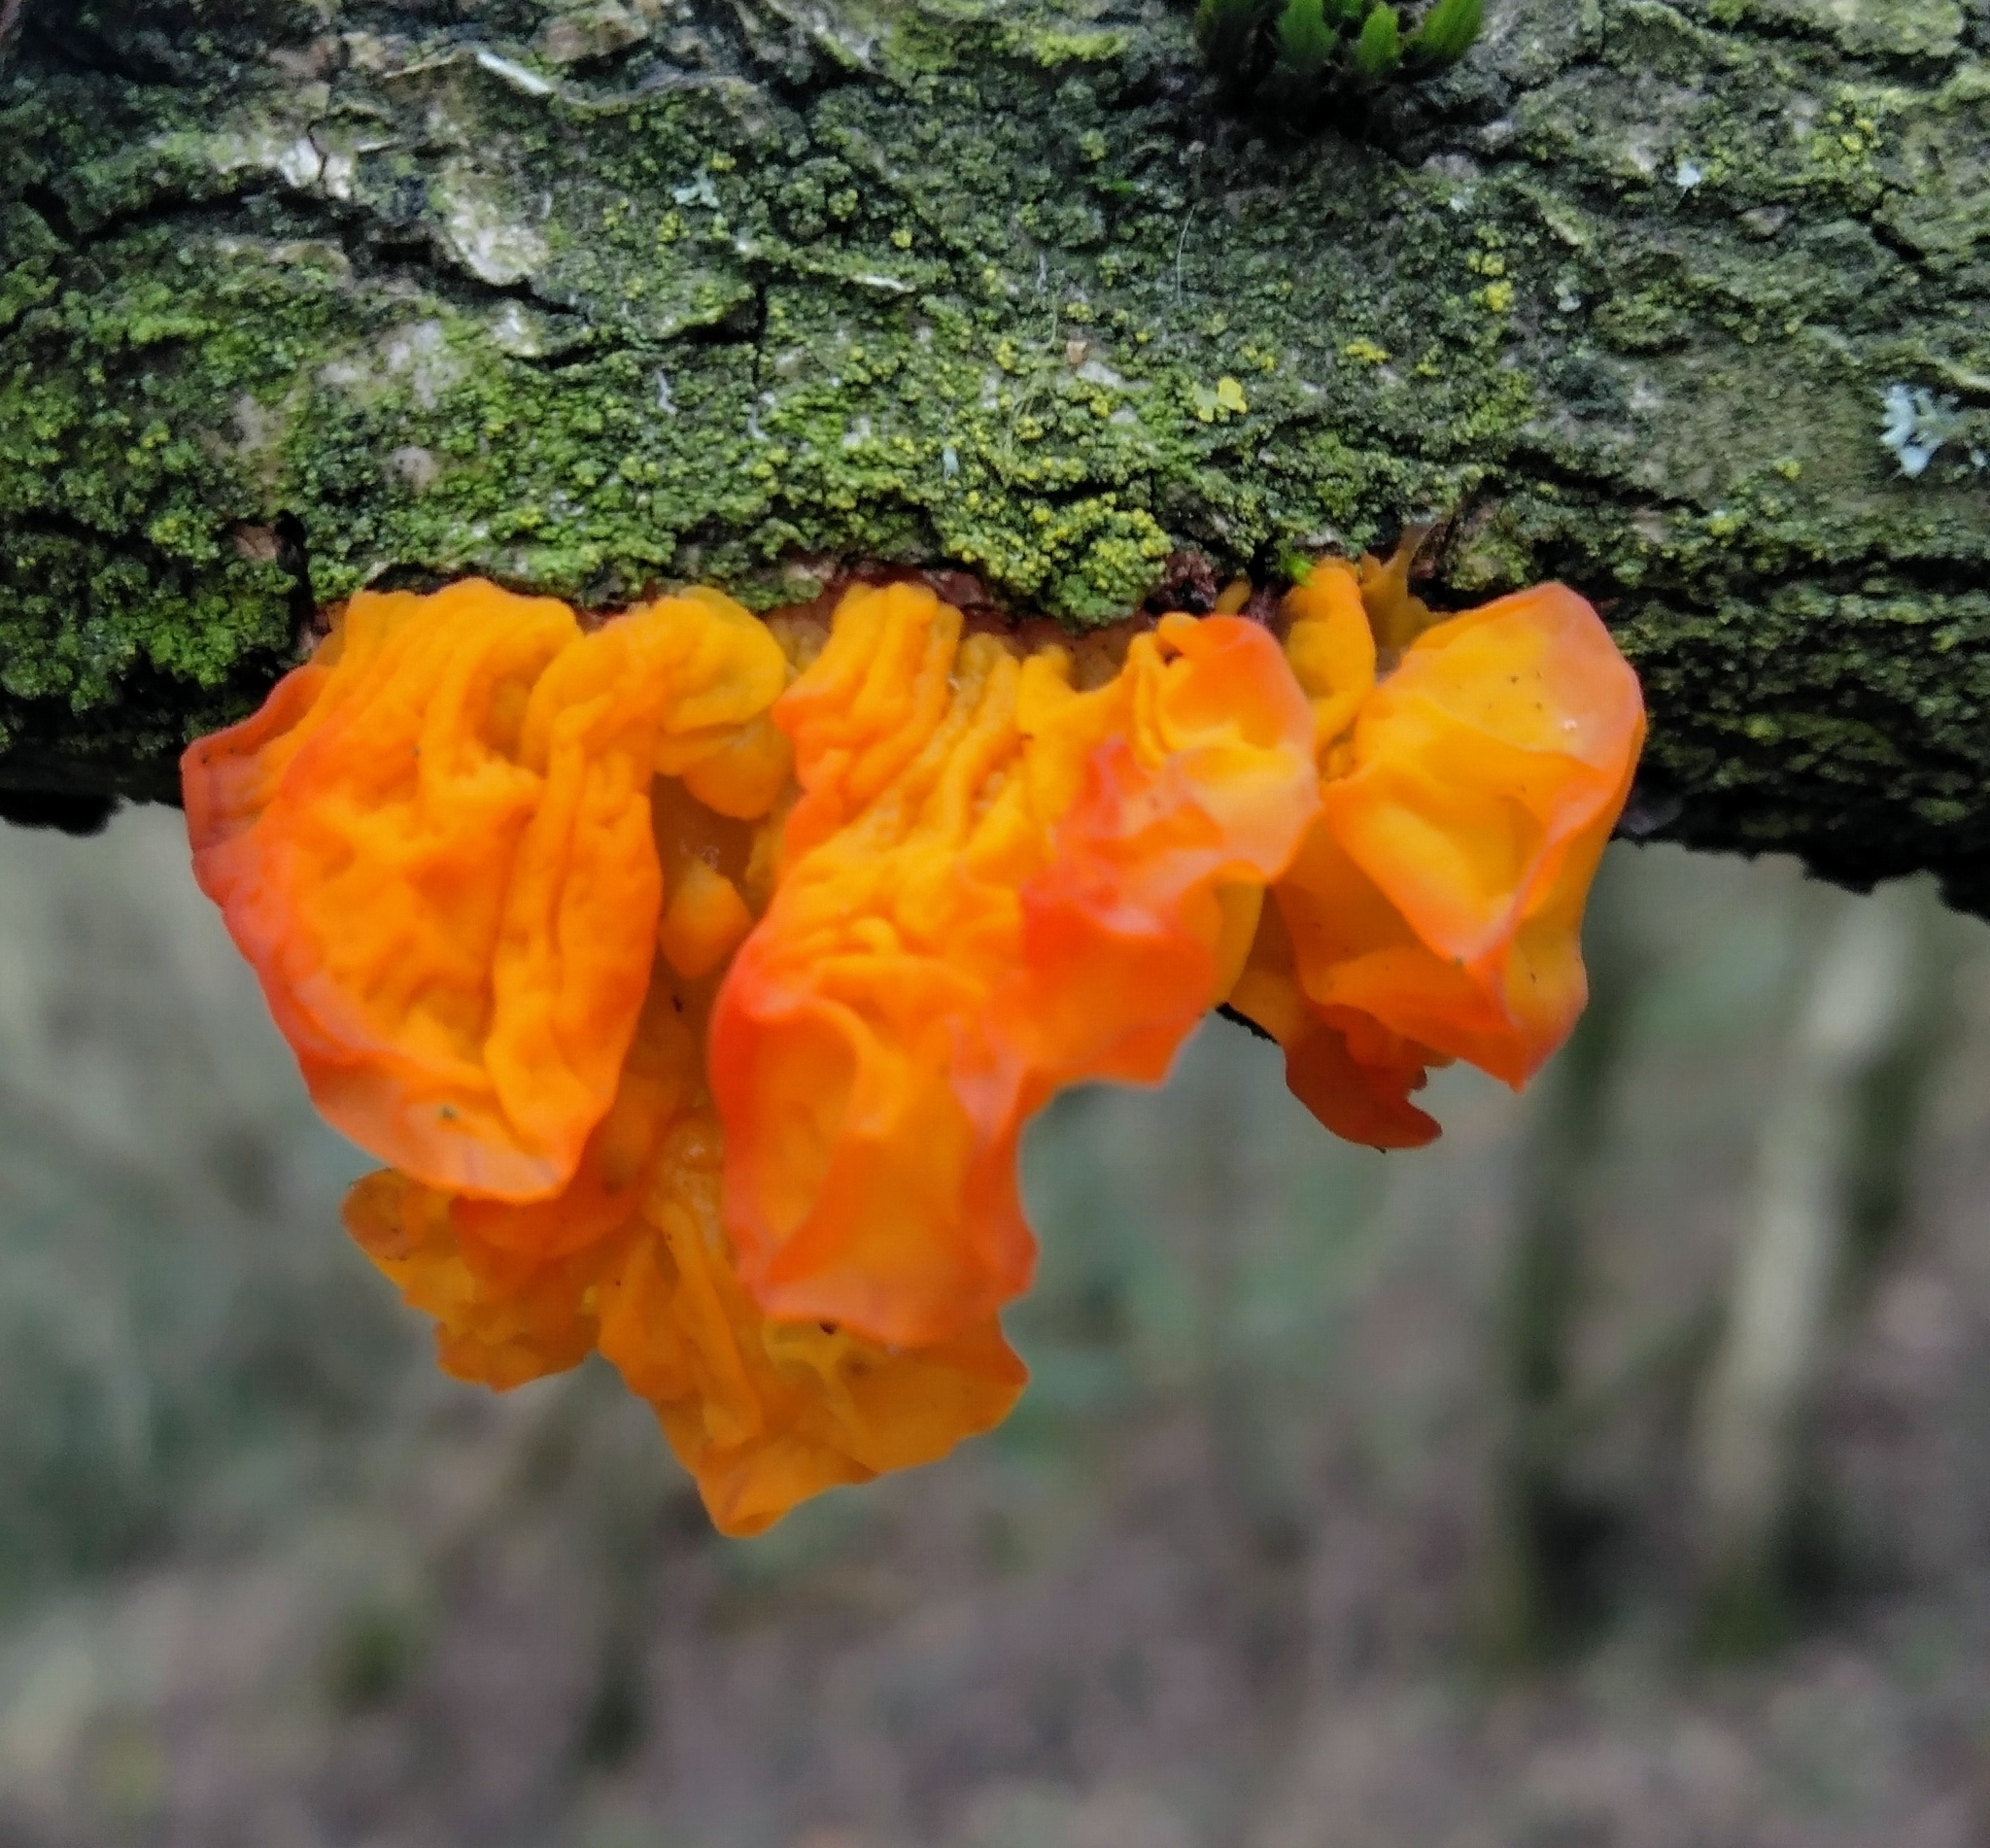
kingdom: Fungi
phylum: Basidiomycota
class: Tremellomycetes
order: Tremellales
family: Tremellaceae
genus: Tremella
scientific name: Tremella mesenterica
